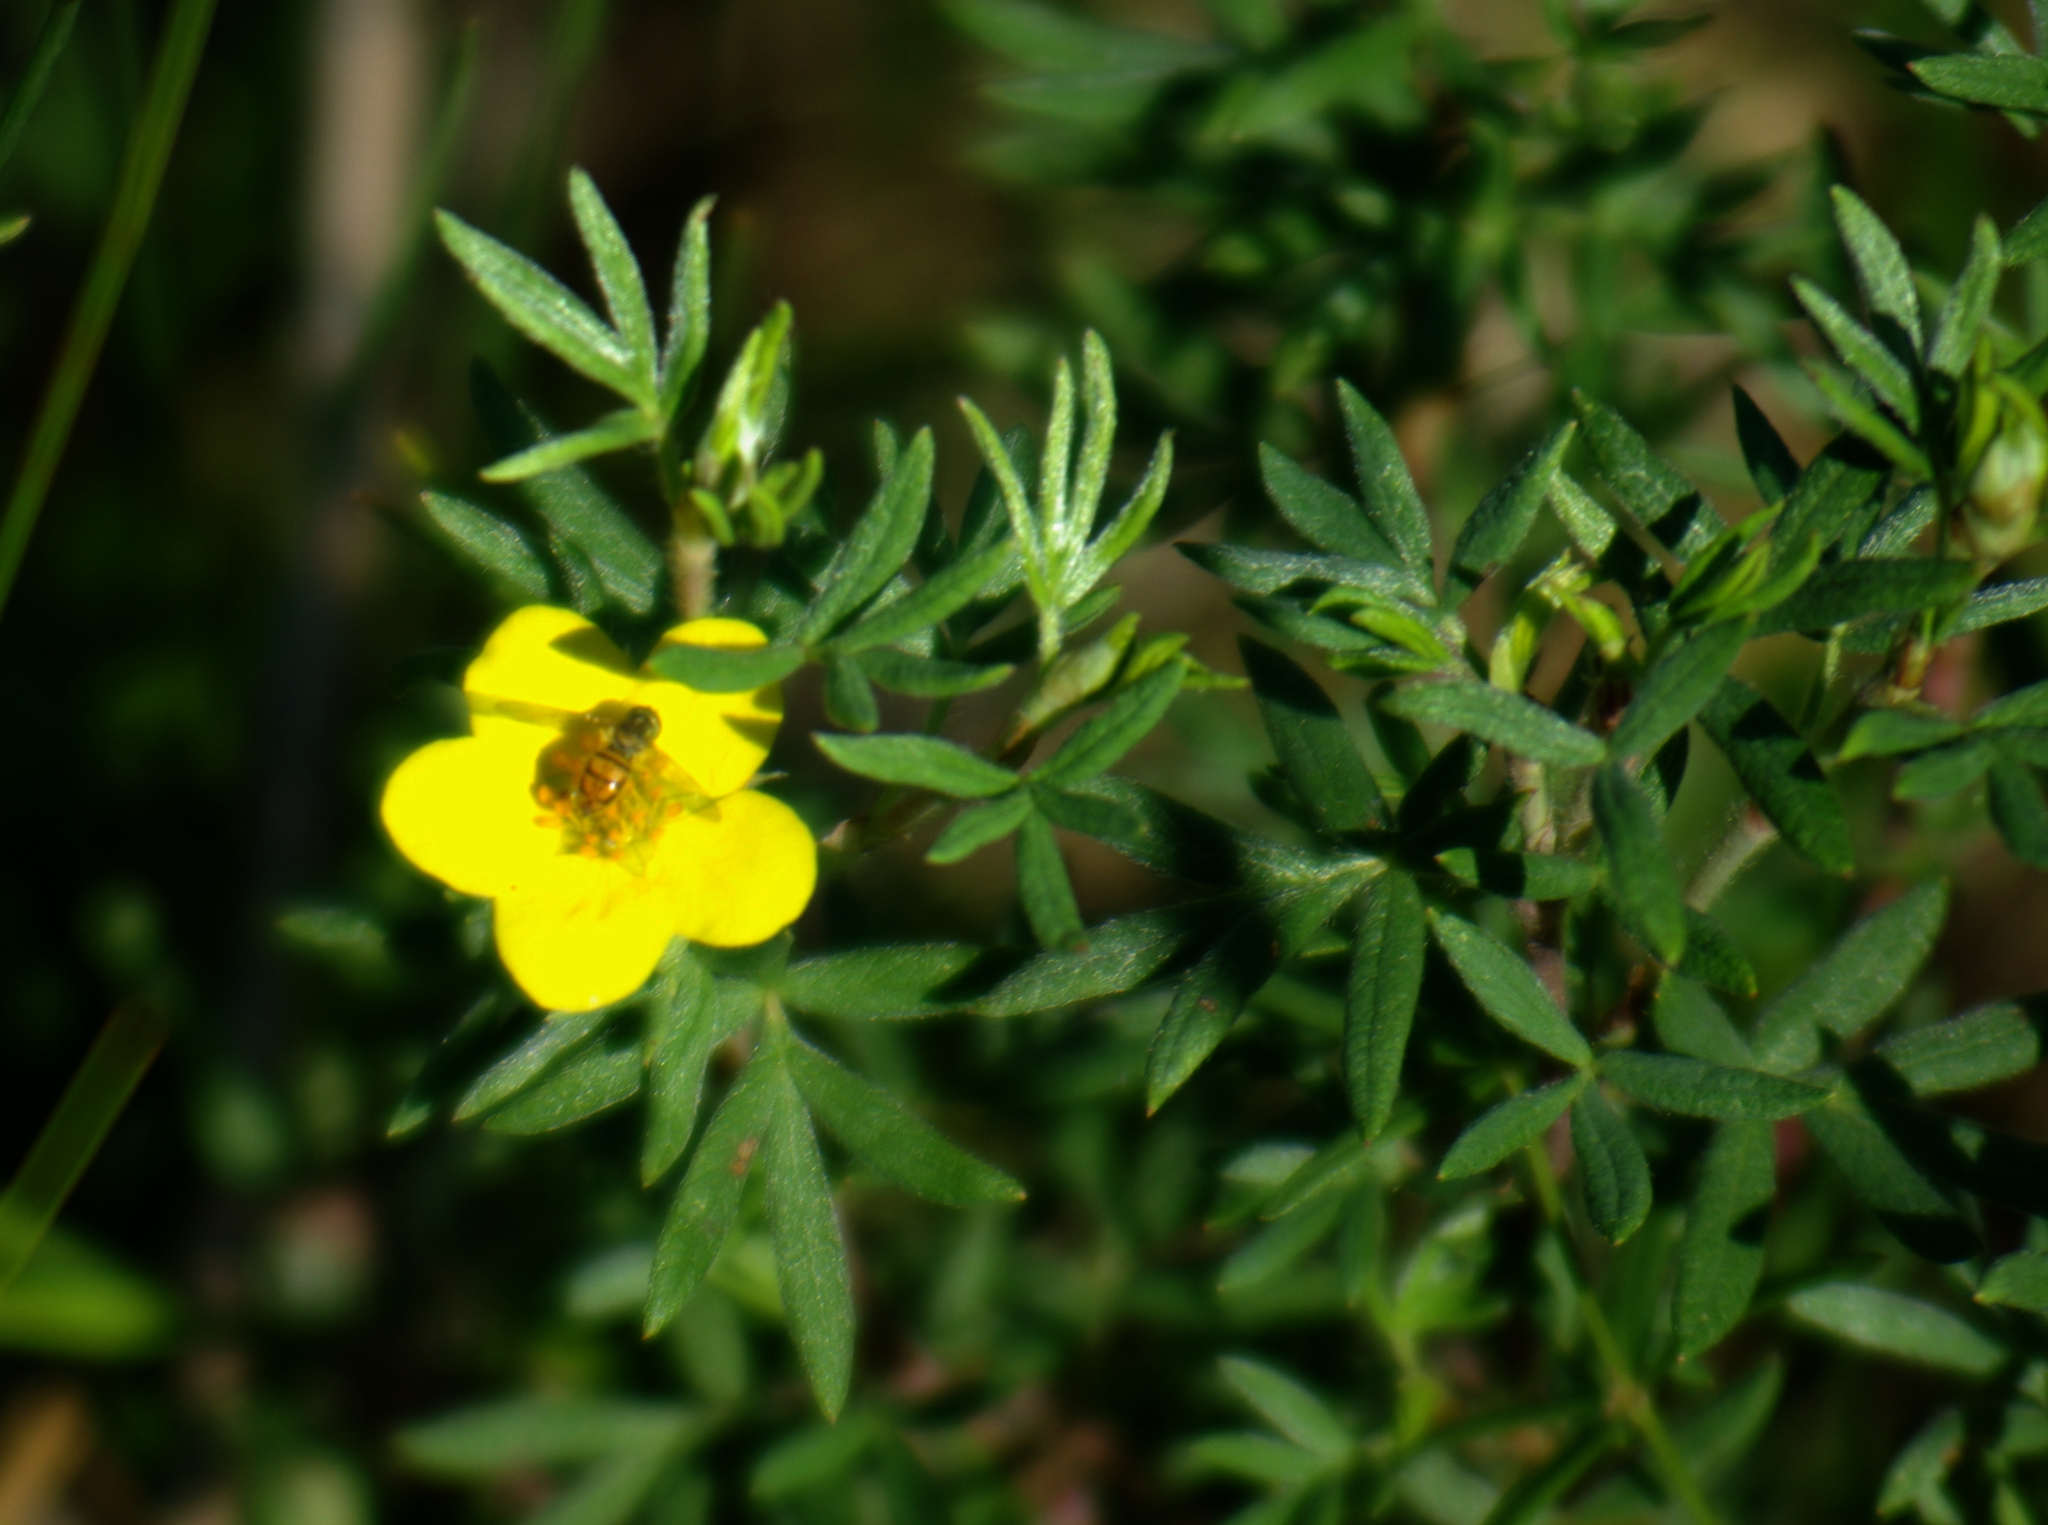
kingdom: Plantae
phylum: Tracheophyta
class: Magnoliopsida
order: Rosales
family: Rosaceae
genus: Dasiphora
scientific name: Dasiphora fruticosa
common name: Shrubby cinquefoil
